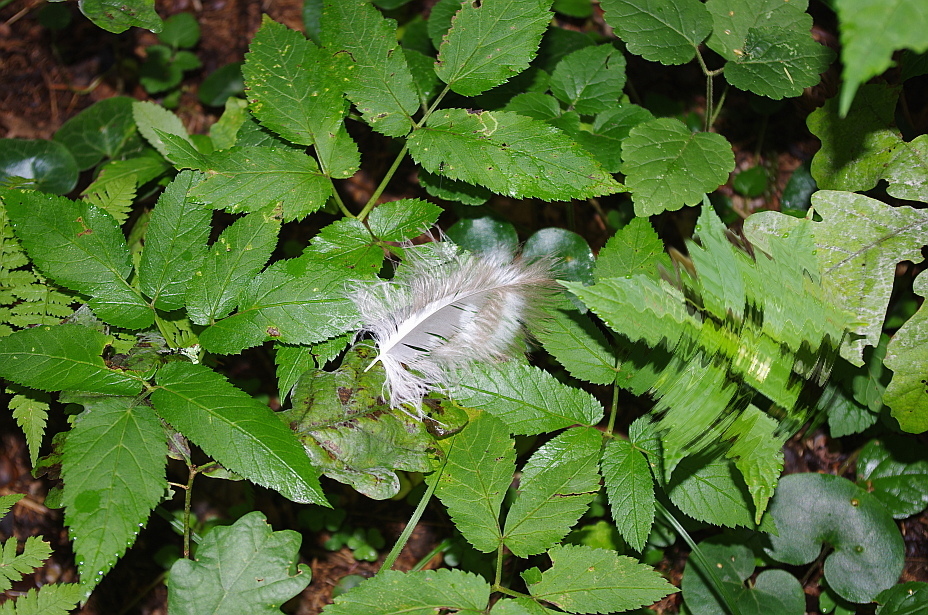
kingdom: Plantae
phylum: Tracheophyta
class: Magnoliopsida
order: Apiales
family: Apiaceae
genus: Aegopodium
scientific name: Aegopodium podagraria
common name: Ground-elder
